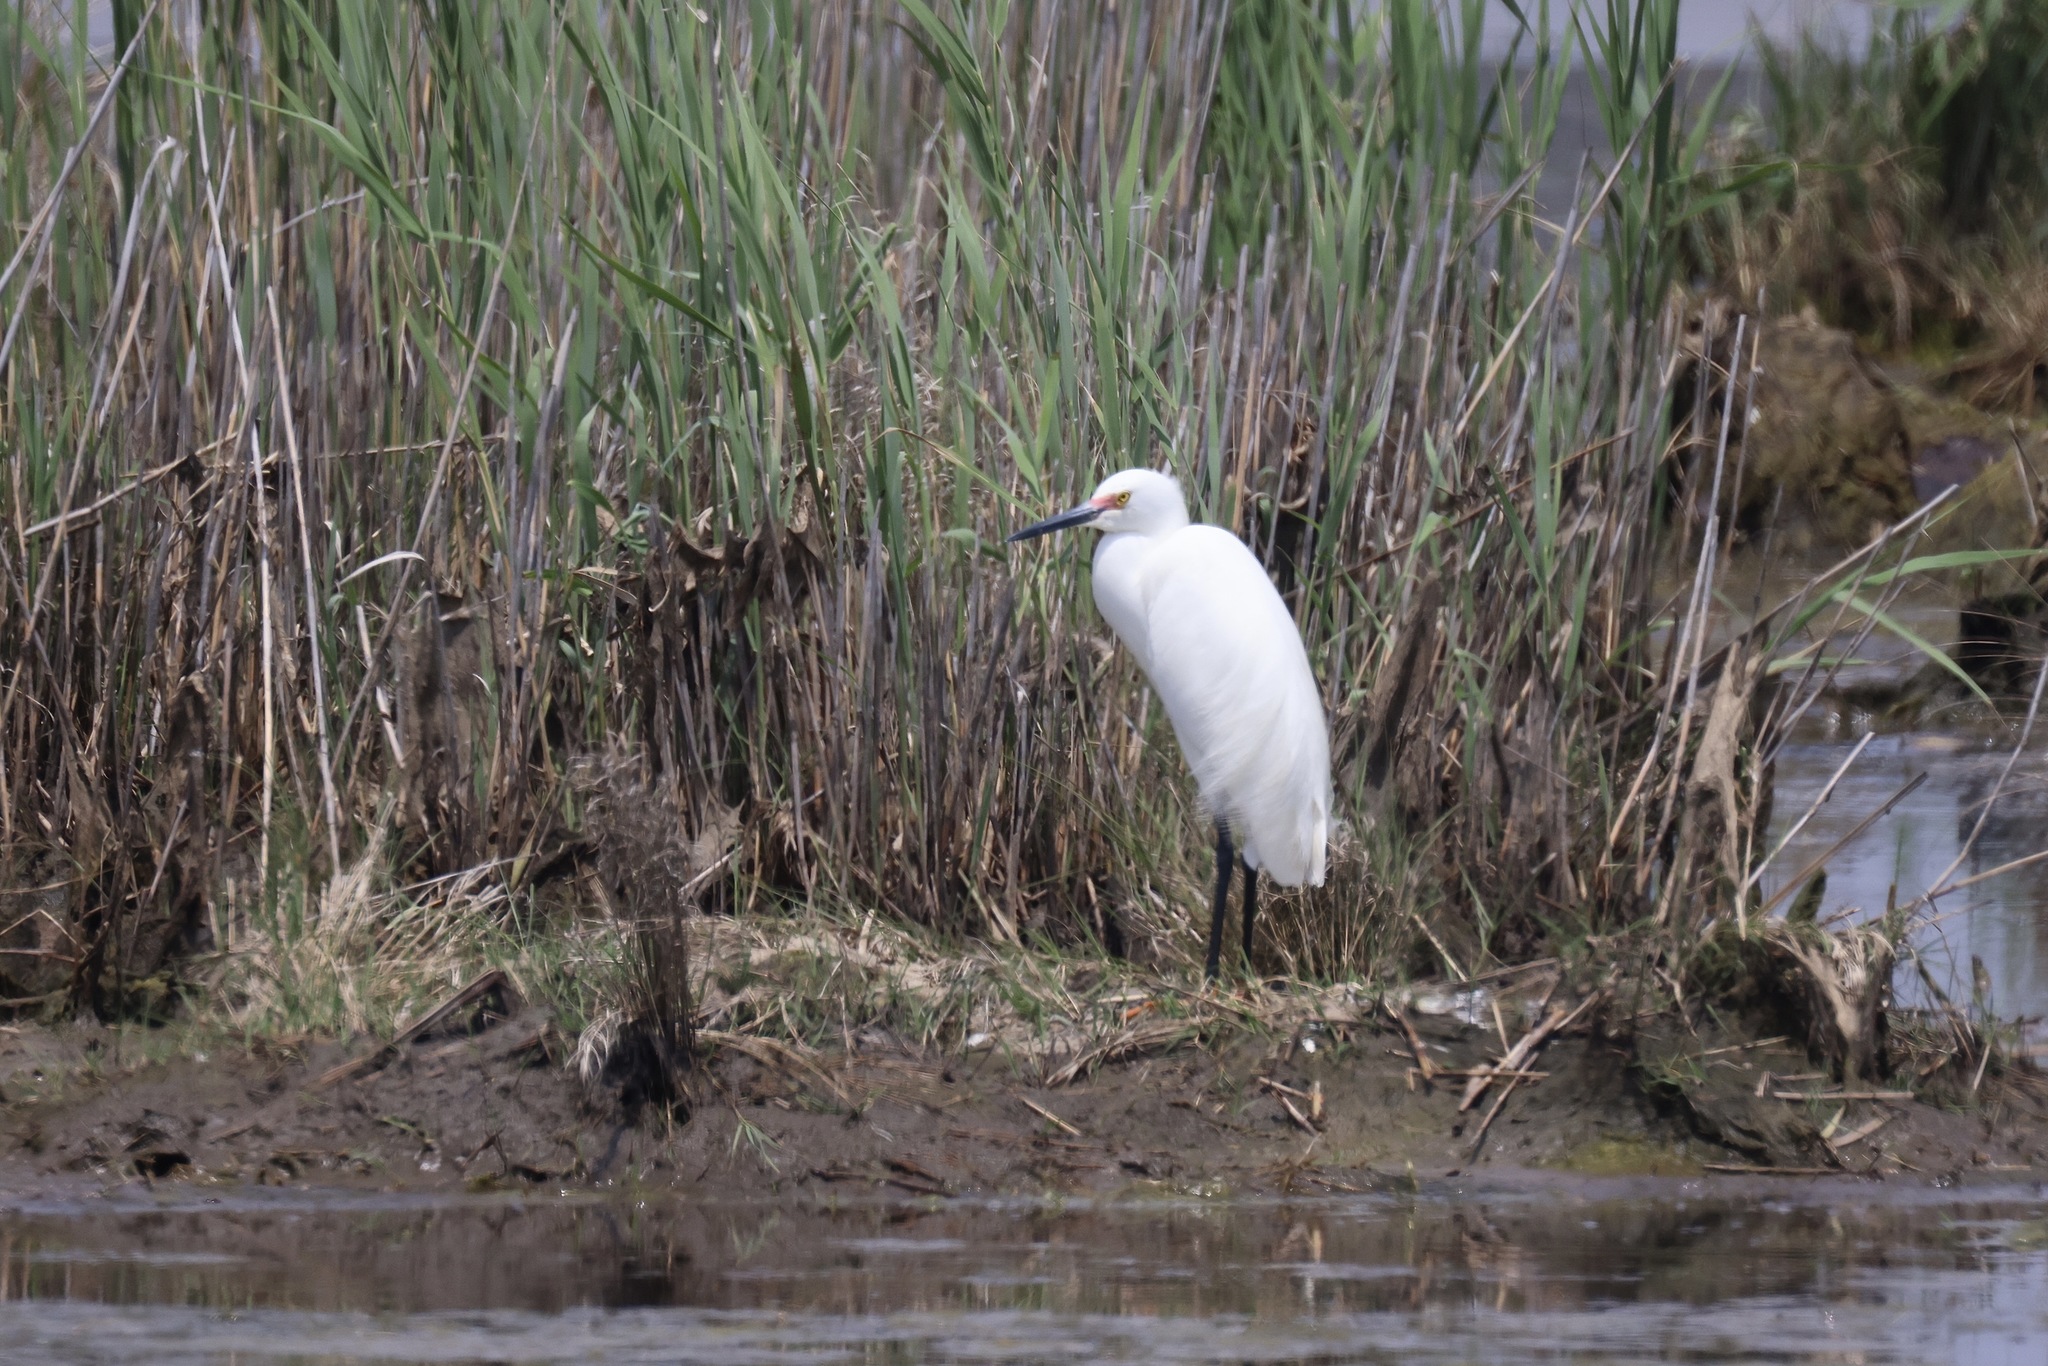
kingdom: Animalia
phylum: Chordata
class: Aves
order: Pelecaniformes
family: Ardeidae
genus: Egretta
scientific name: Egretta thula
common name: Snowy egret
